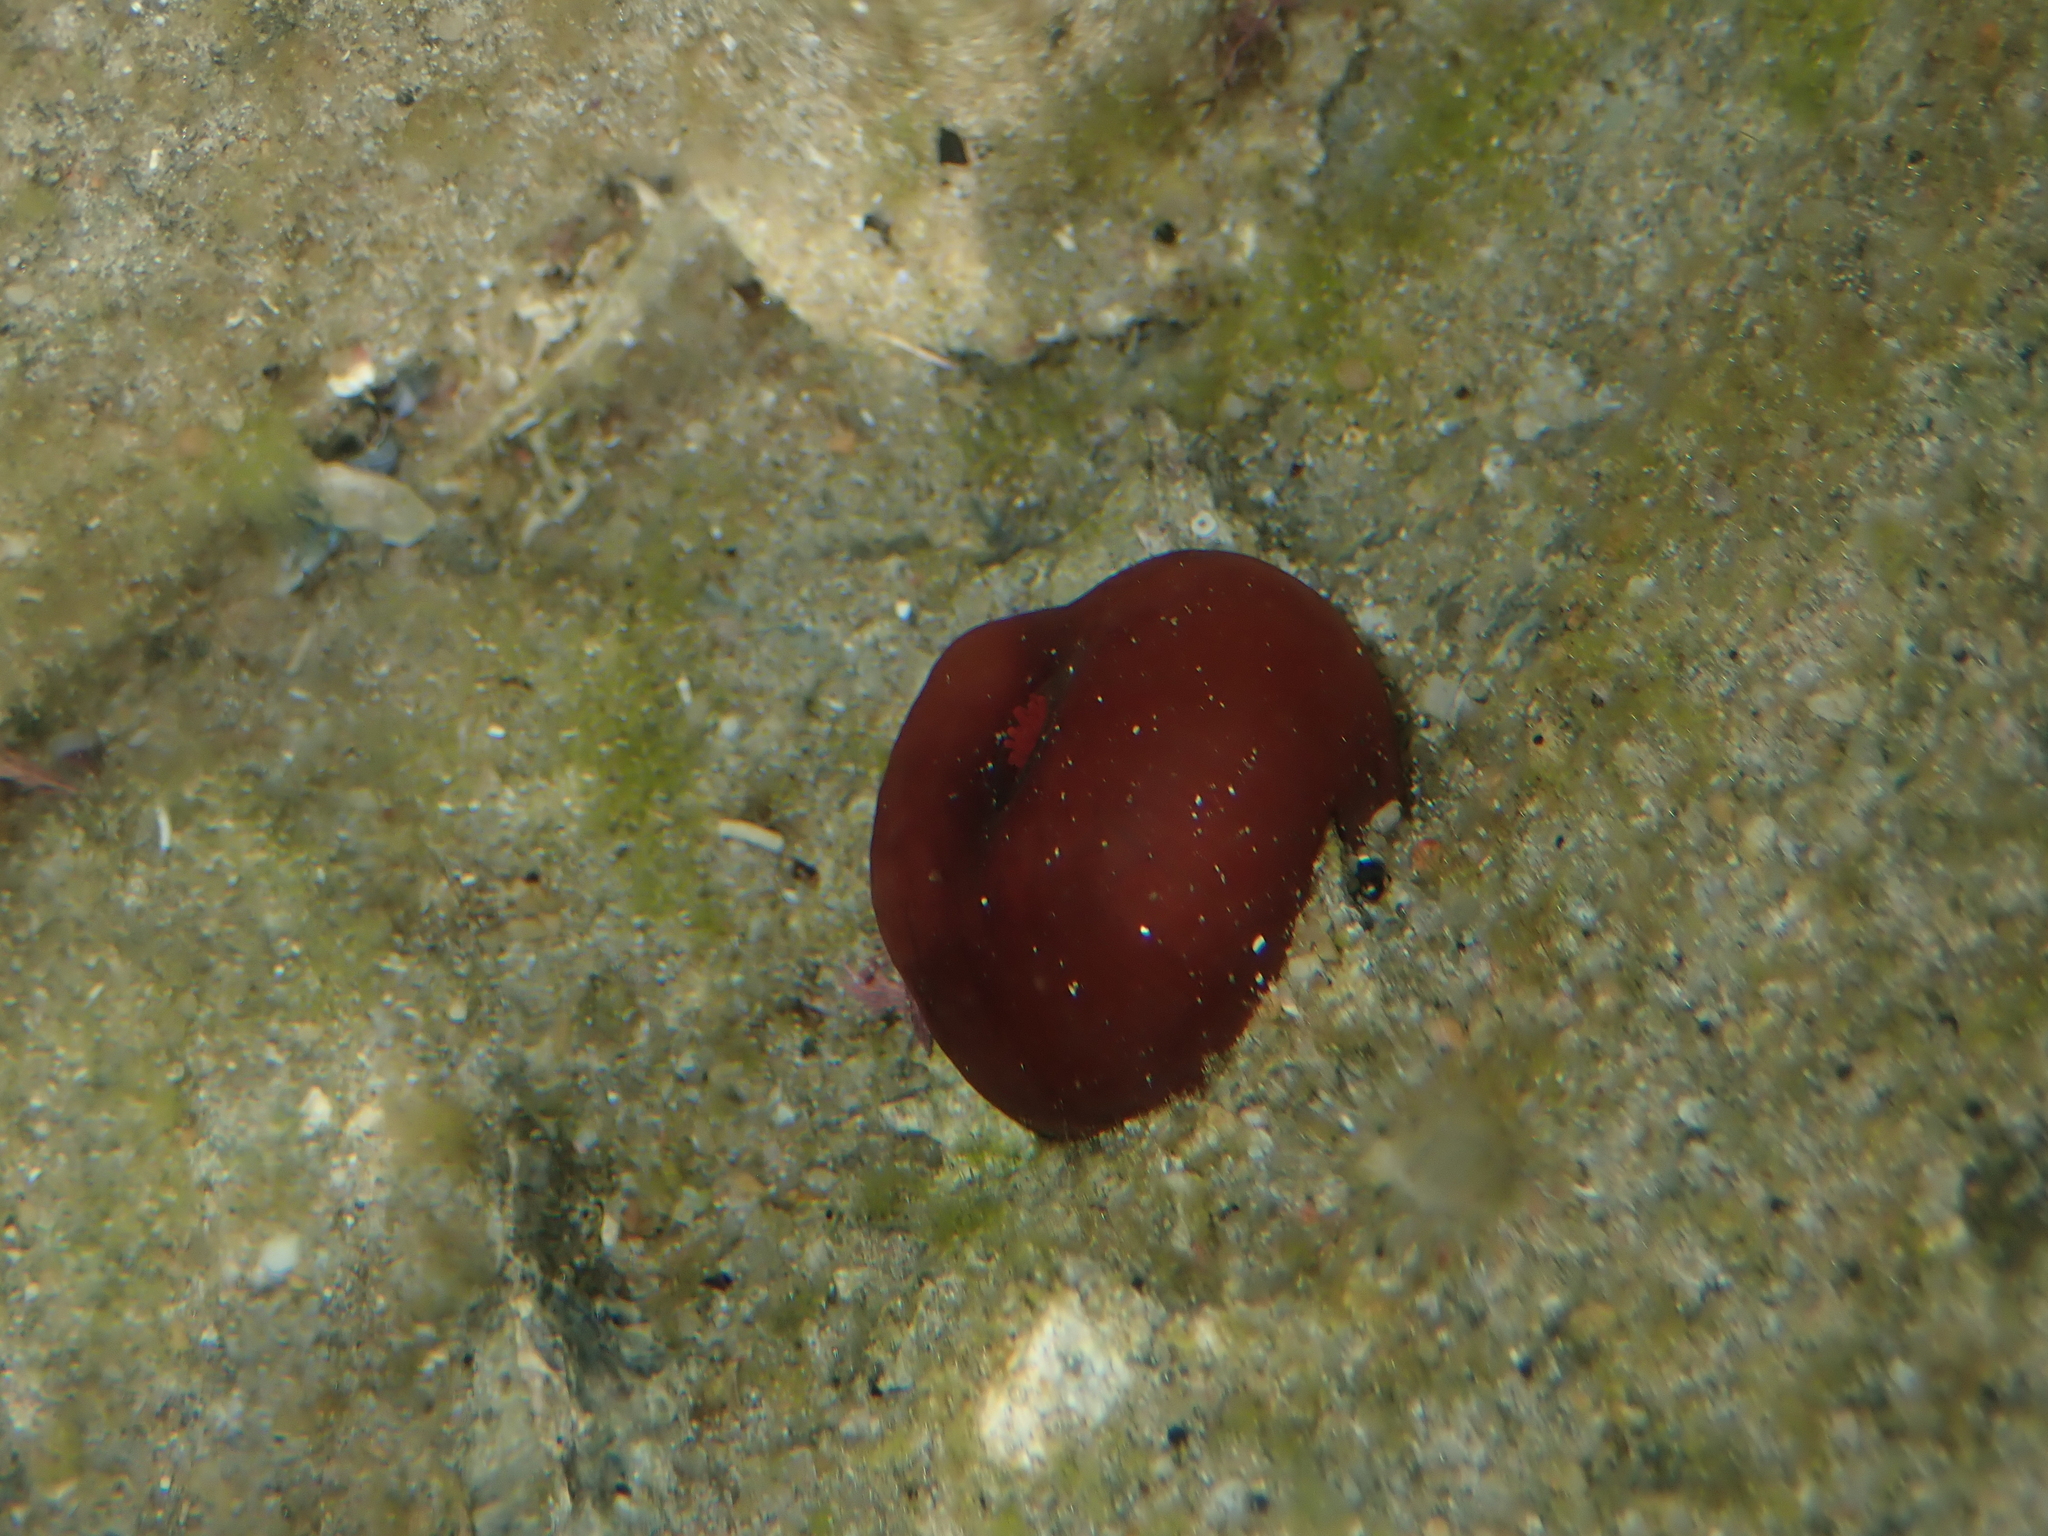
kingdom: Animalia
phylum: Cnidaria
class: Anthozoa
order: Actiniaria
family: Actiniidae
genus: Actinia
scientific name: Actinia tenebrosa
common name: Waratah anemone
